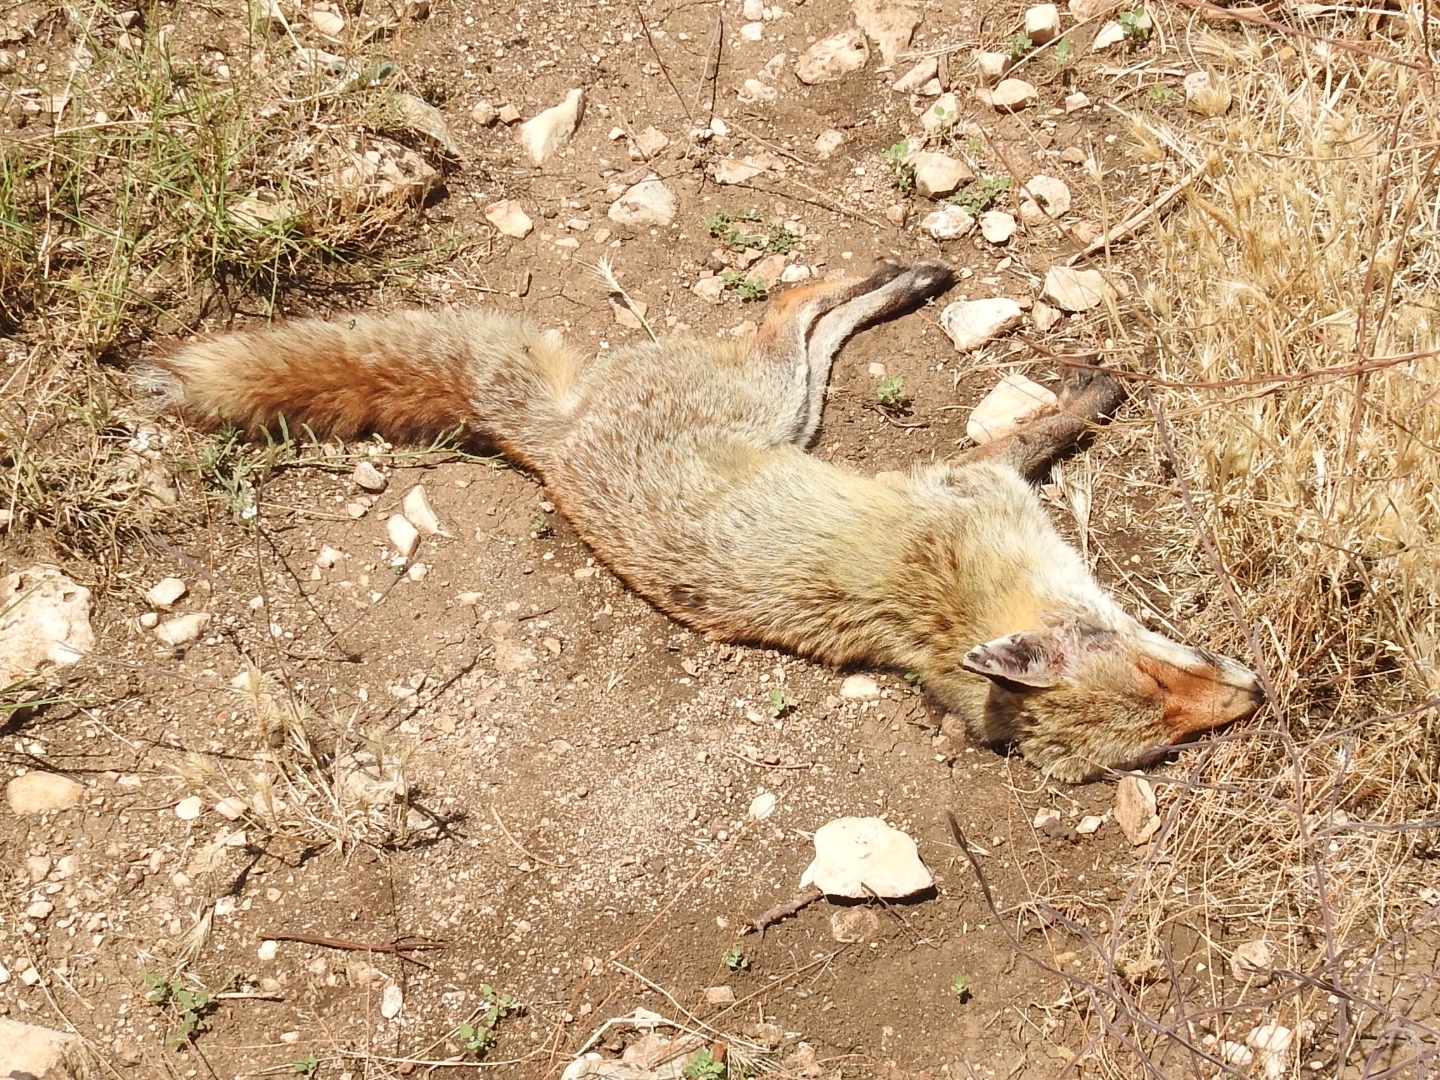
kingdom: Animalia
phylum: Chordata
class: Mammalia
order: Carnivora
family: Canidae
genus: Vulpes
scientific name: Vulpes vulpes
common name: Red fox
